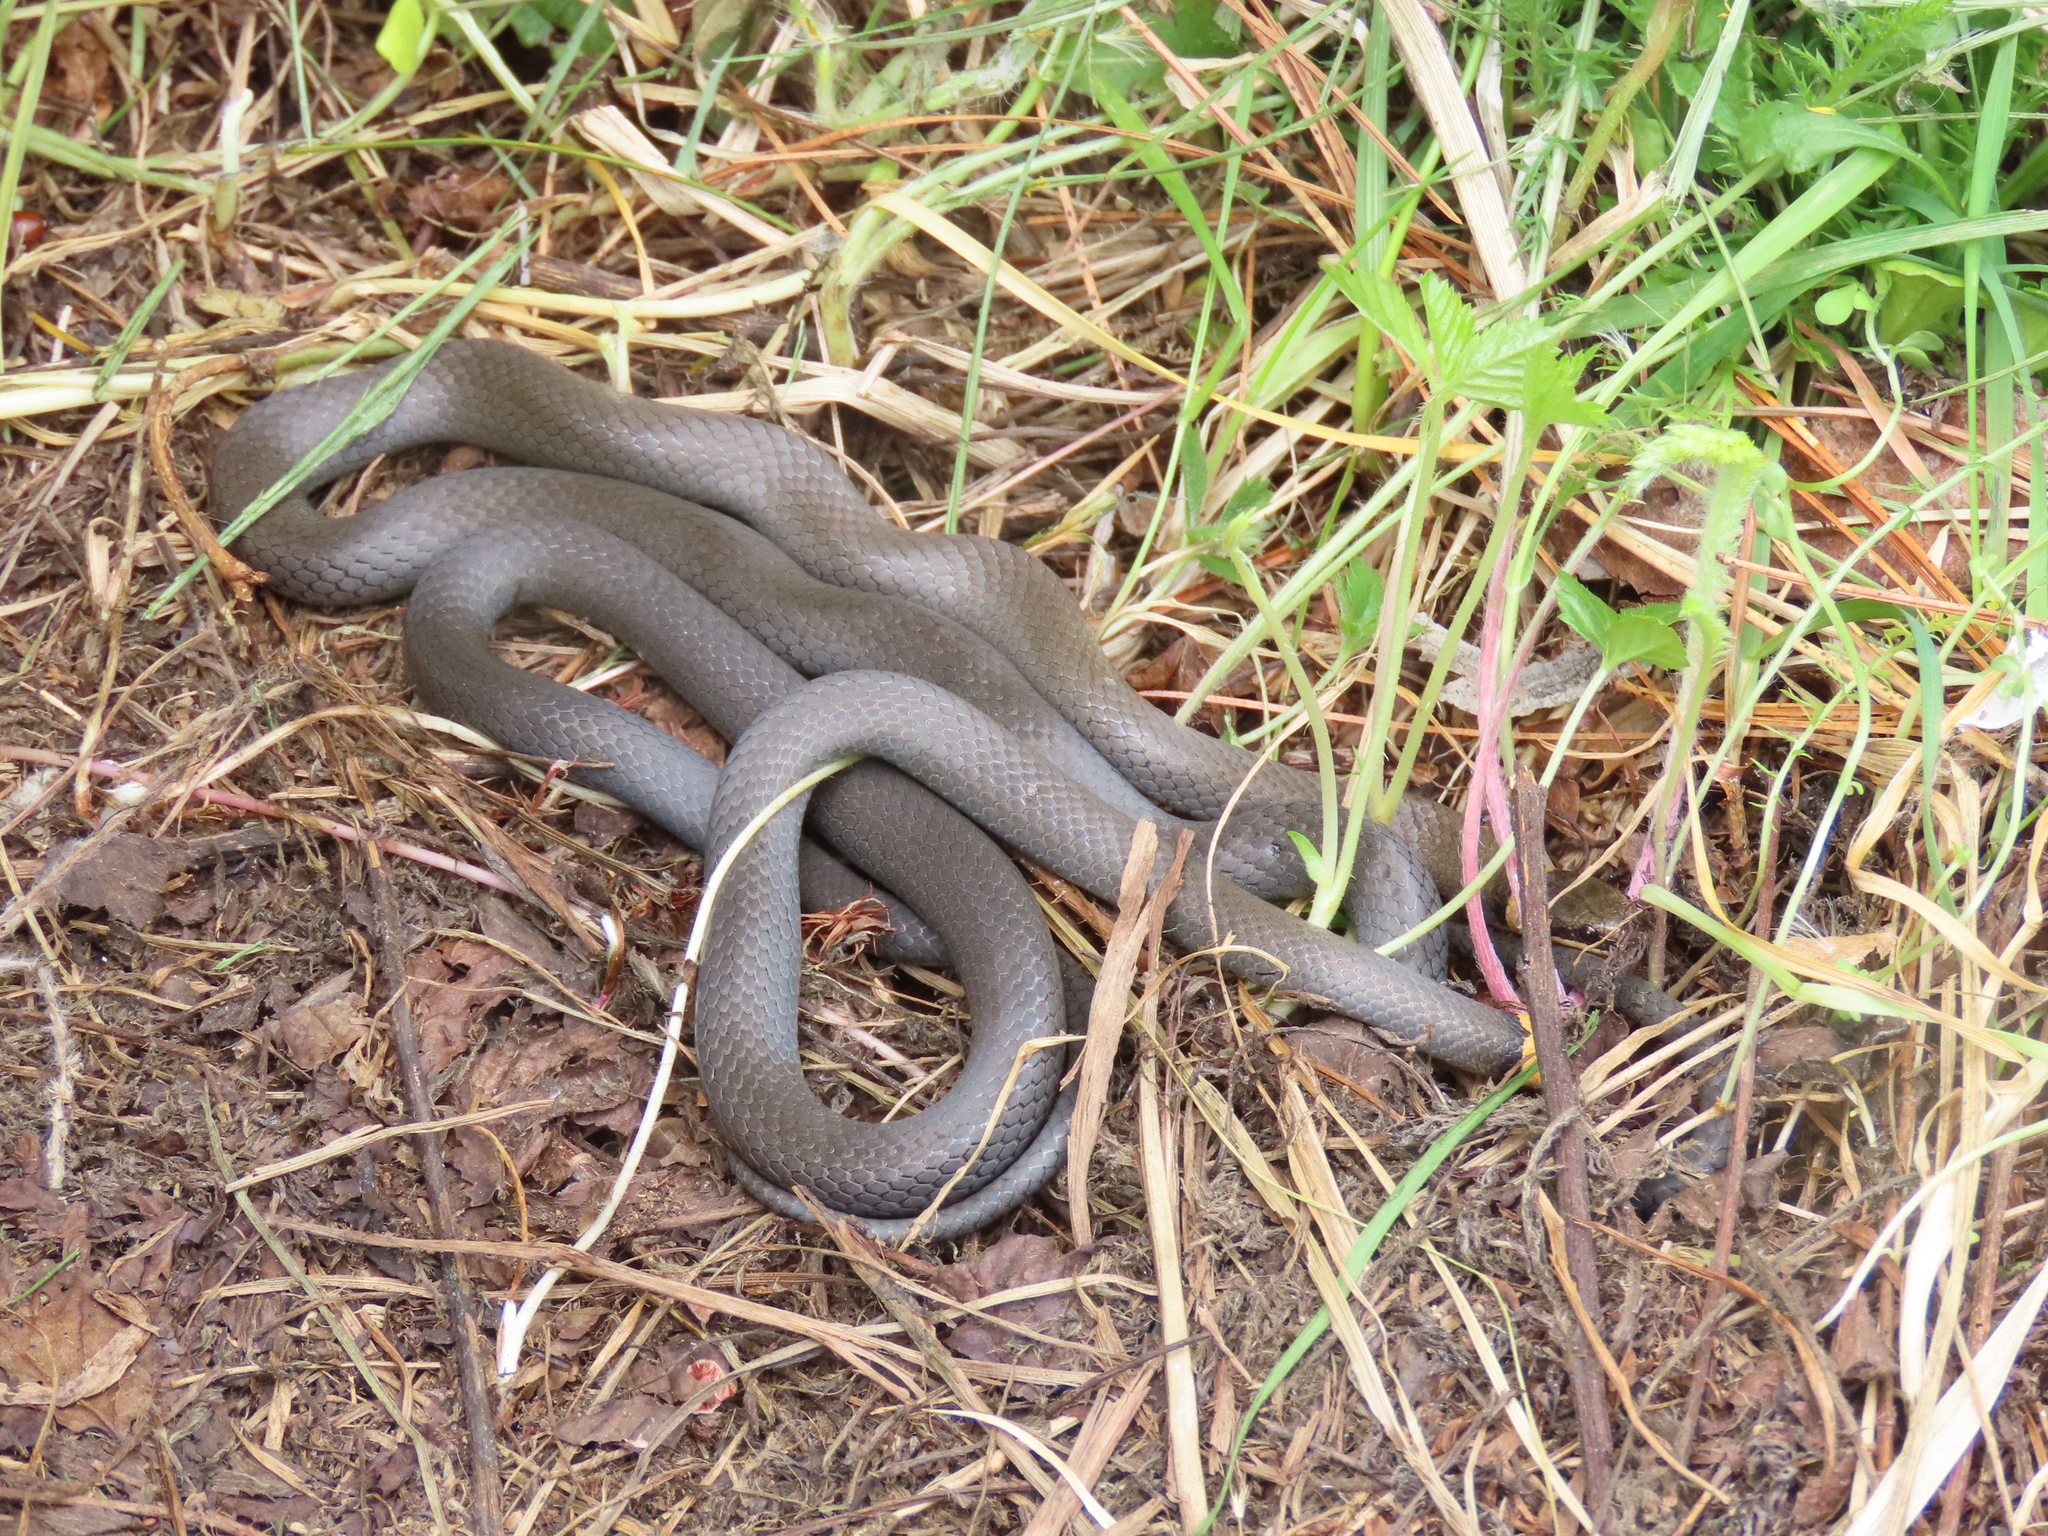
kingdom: Animalia
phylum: Chordata
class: Squamata
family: Colubridae
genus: Diadophis
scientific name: Diadophis punctatus
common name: Ringneck snake
